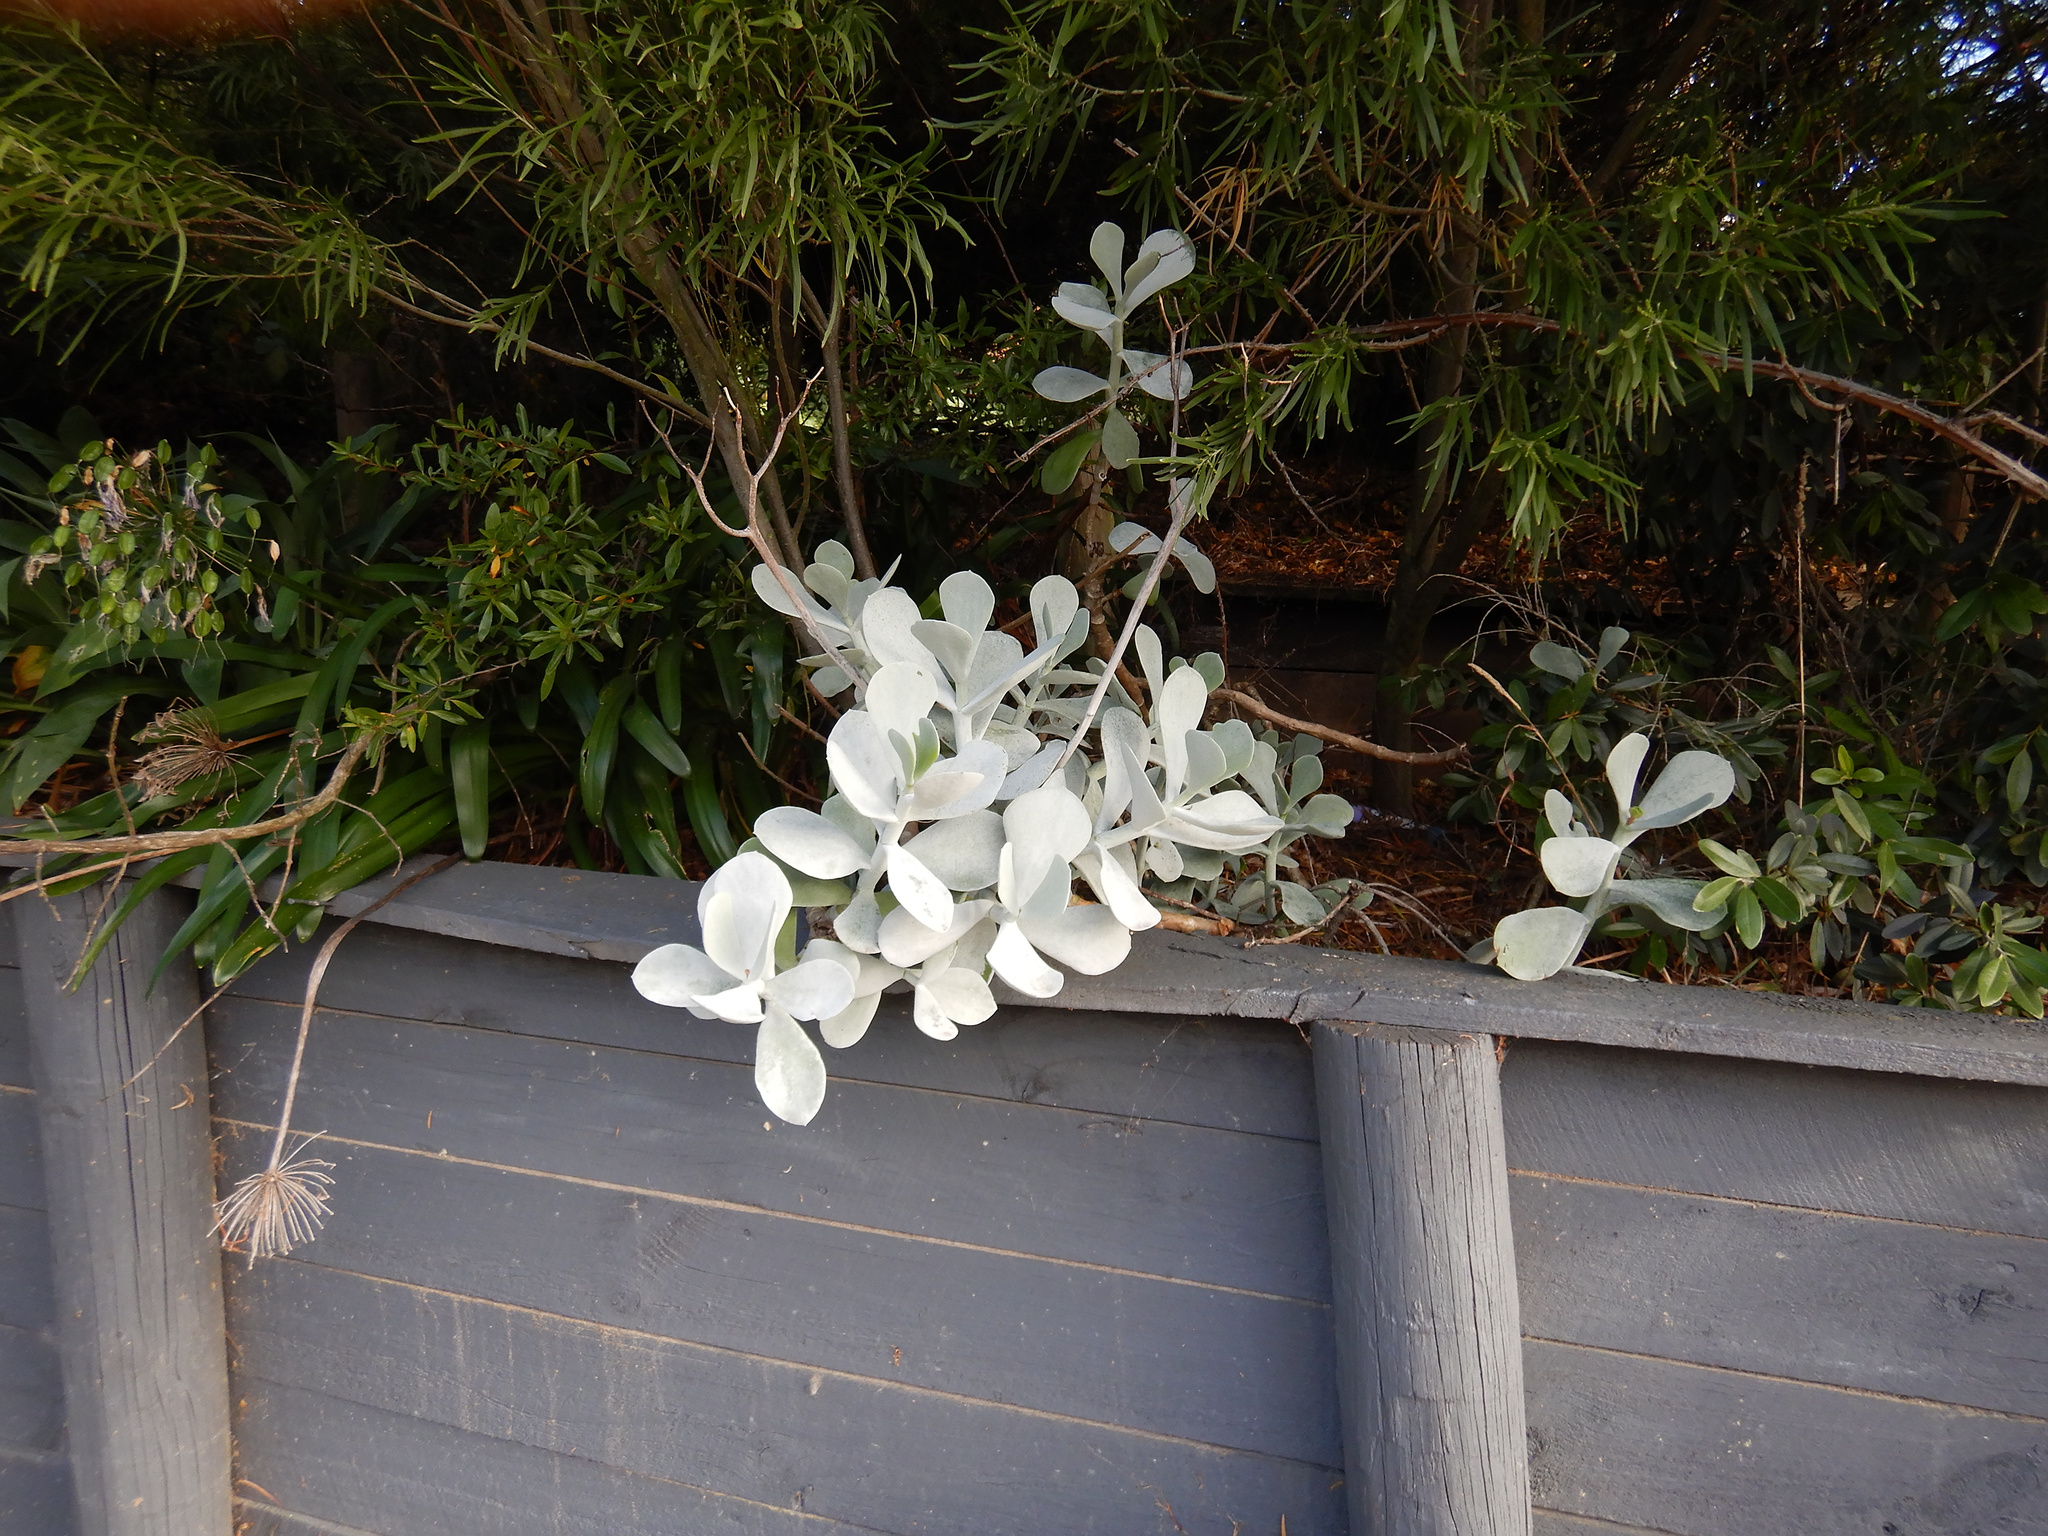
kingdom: Plantae
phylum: Tracheophyta
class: Magnoliopsida
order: Saxifragales
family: Crassulaceae
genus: Cotyledon
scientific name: Cotyledon orbiculata
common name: Pig's ear
